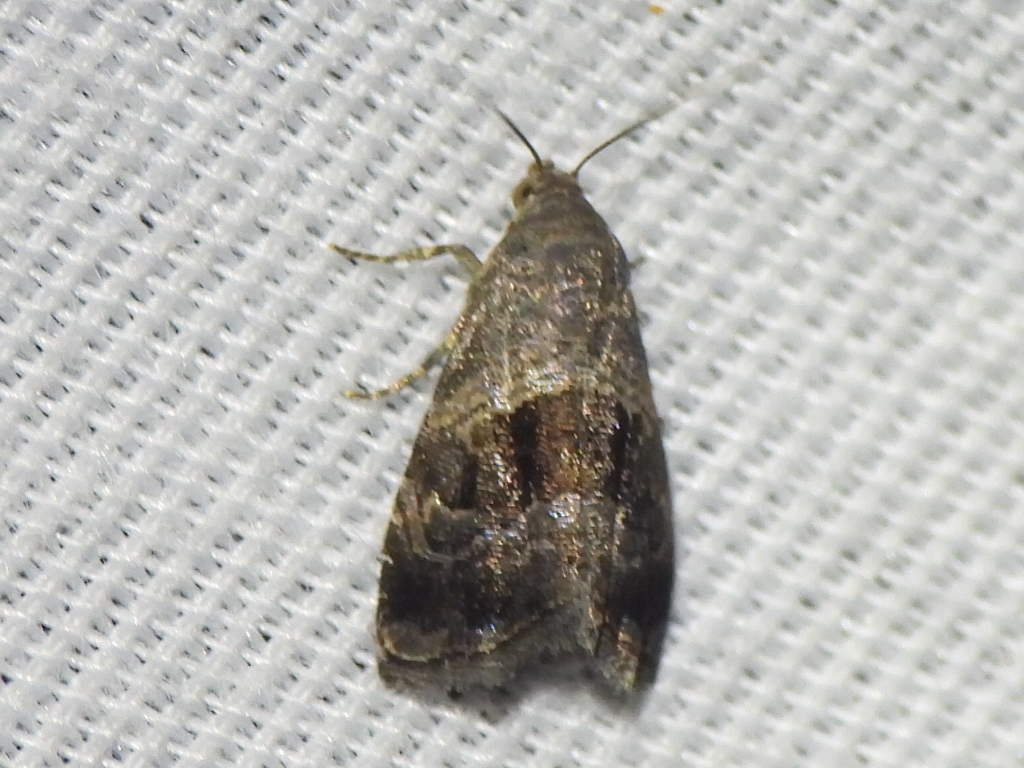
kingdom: Animalia
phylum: Arthropoda
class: Insecta
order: Lepidoptera
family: Noctuidae
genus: Tripudia
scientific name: Tripudia quadrifera
